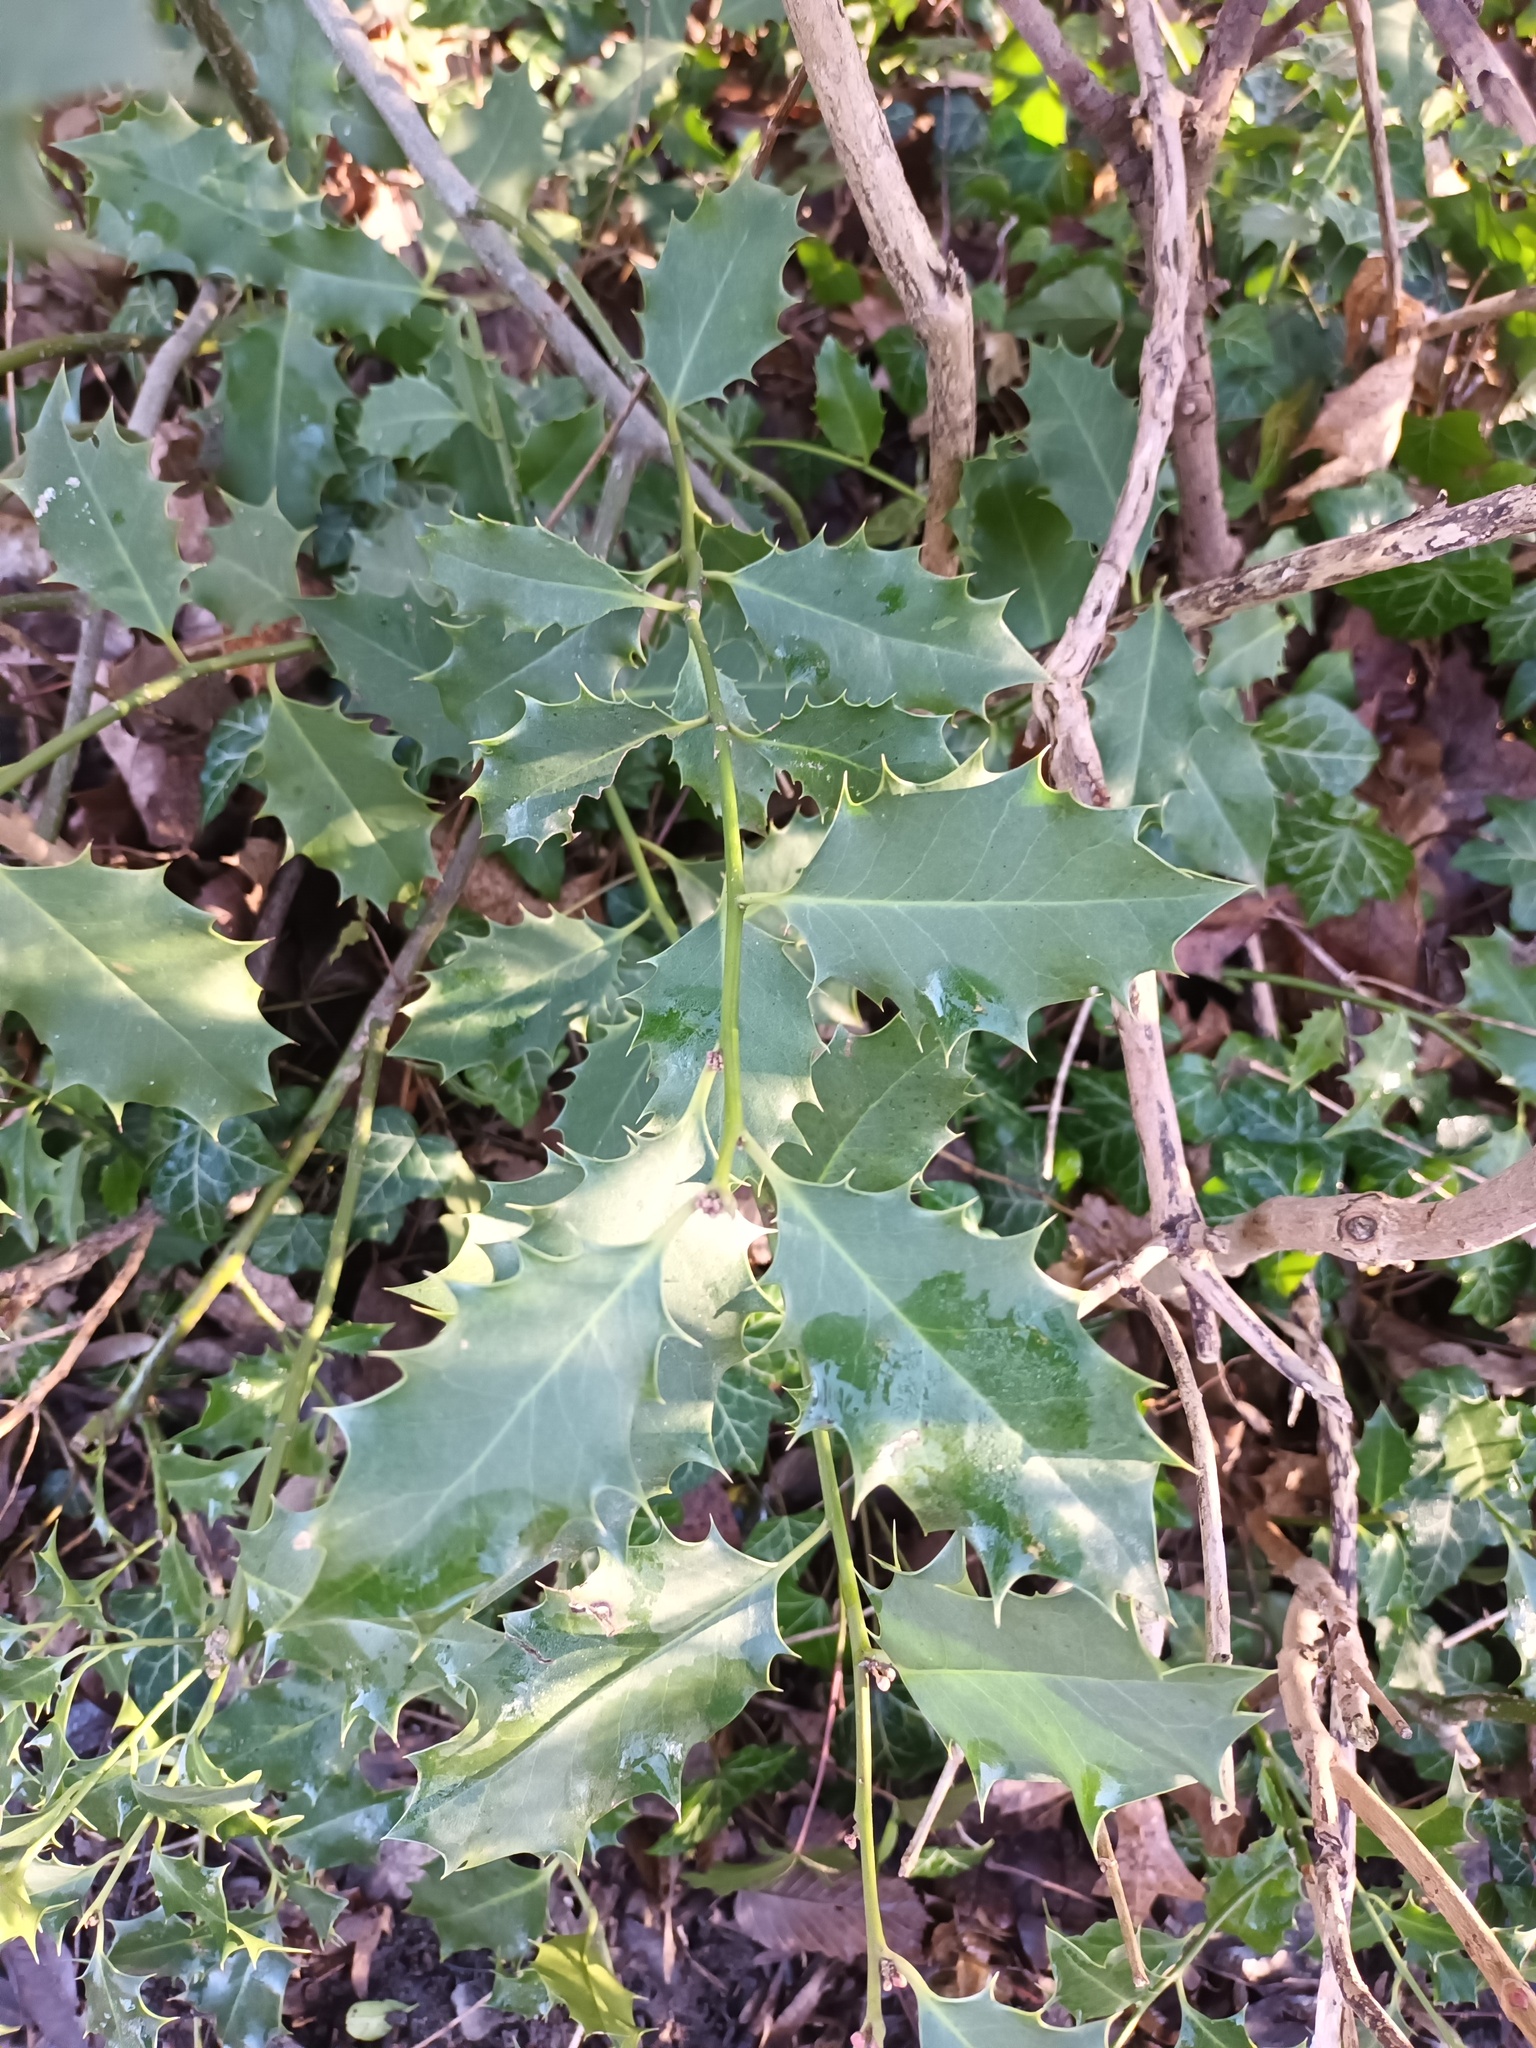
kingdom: Plantae
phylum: Tracheophyta
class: Magnoliopsida
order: Aquifoliales
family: Aquifoliaceae
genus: Ilex
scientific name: Ilex aquifolium
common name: English holly
